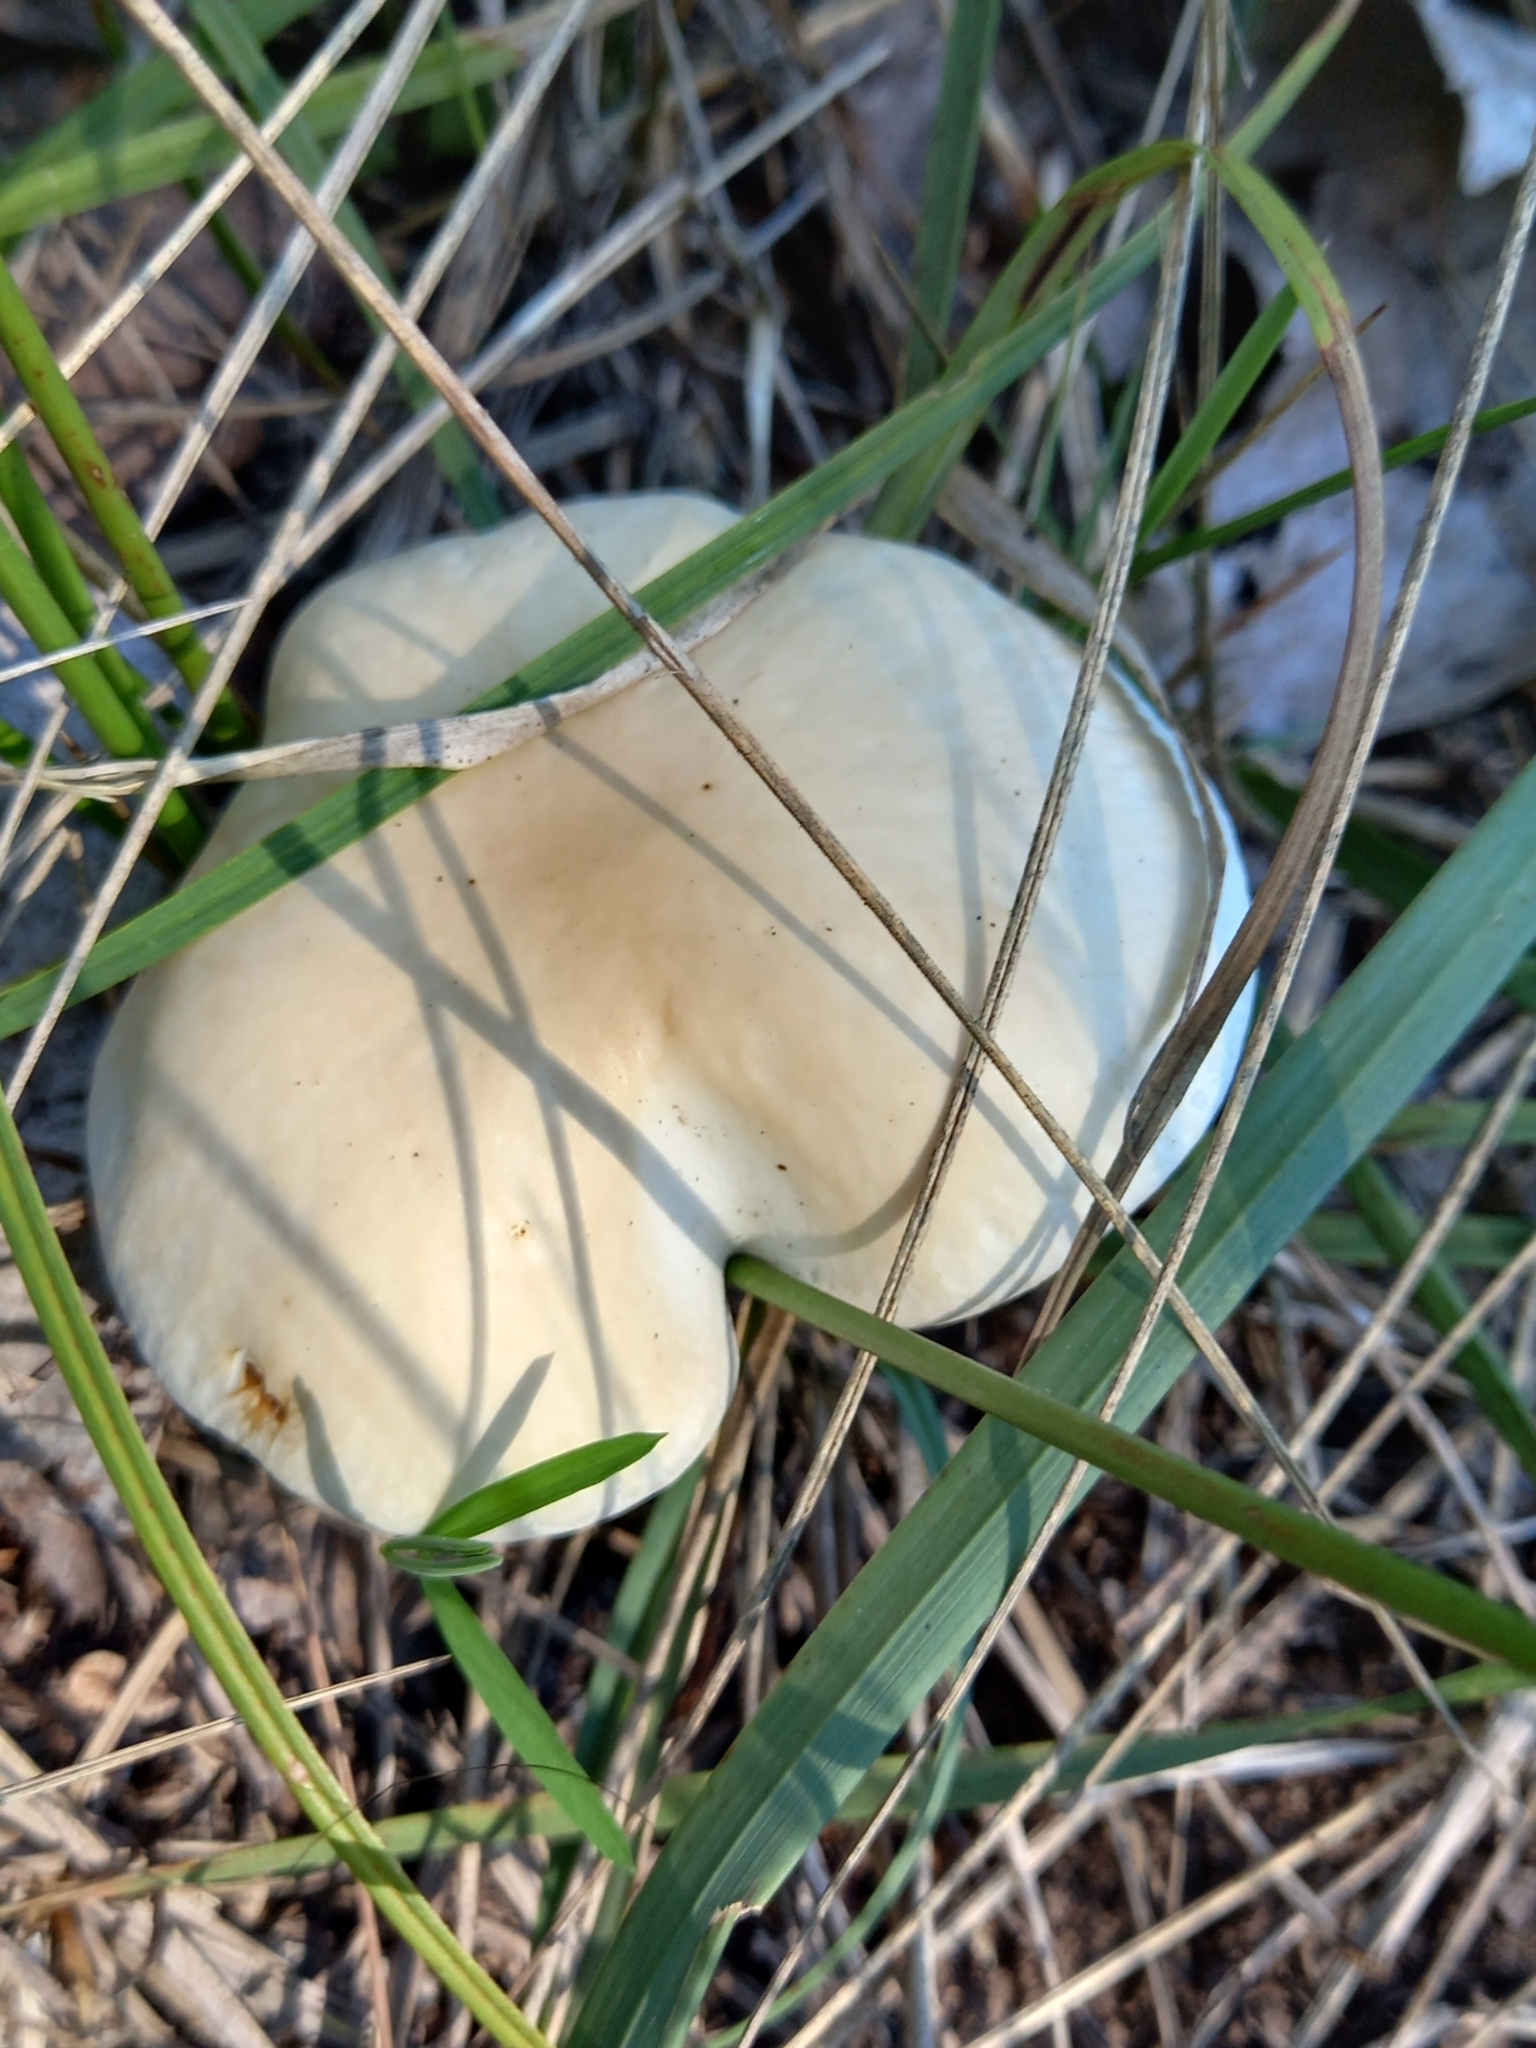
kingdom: Fungi
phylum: Basidiomycota
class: Agaricomycetes
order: Agaricales
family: Tubariaceae
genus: Cyclocybe
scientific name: Cyclocybe cylindracea
